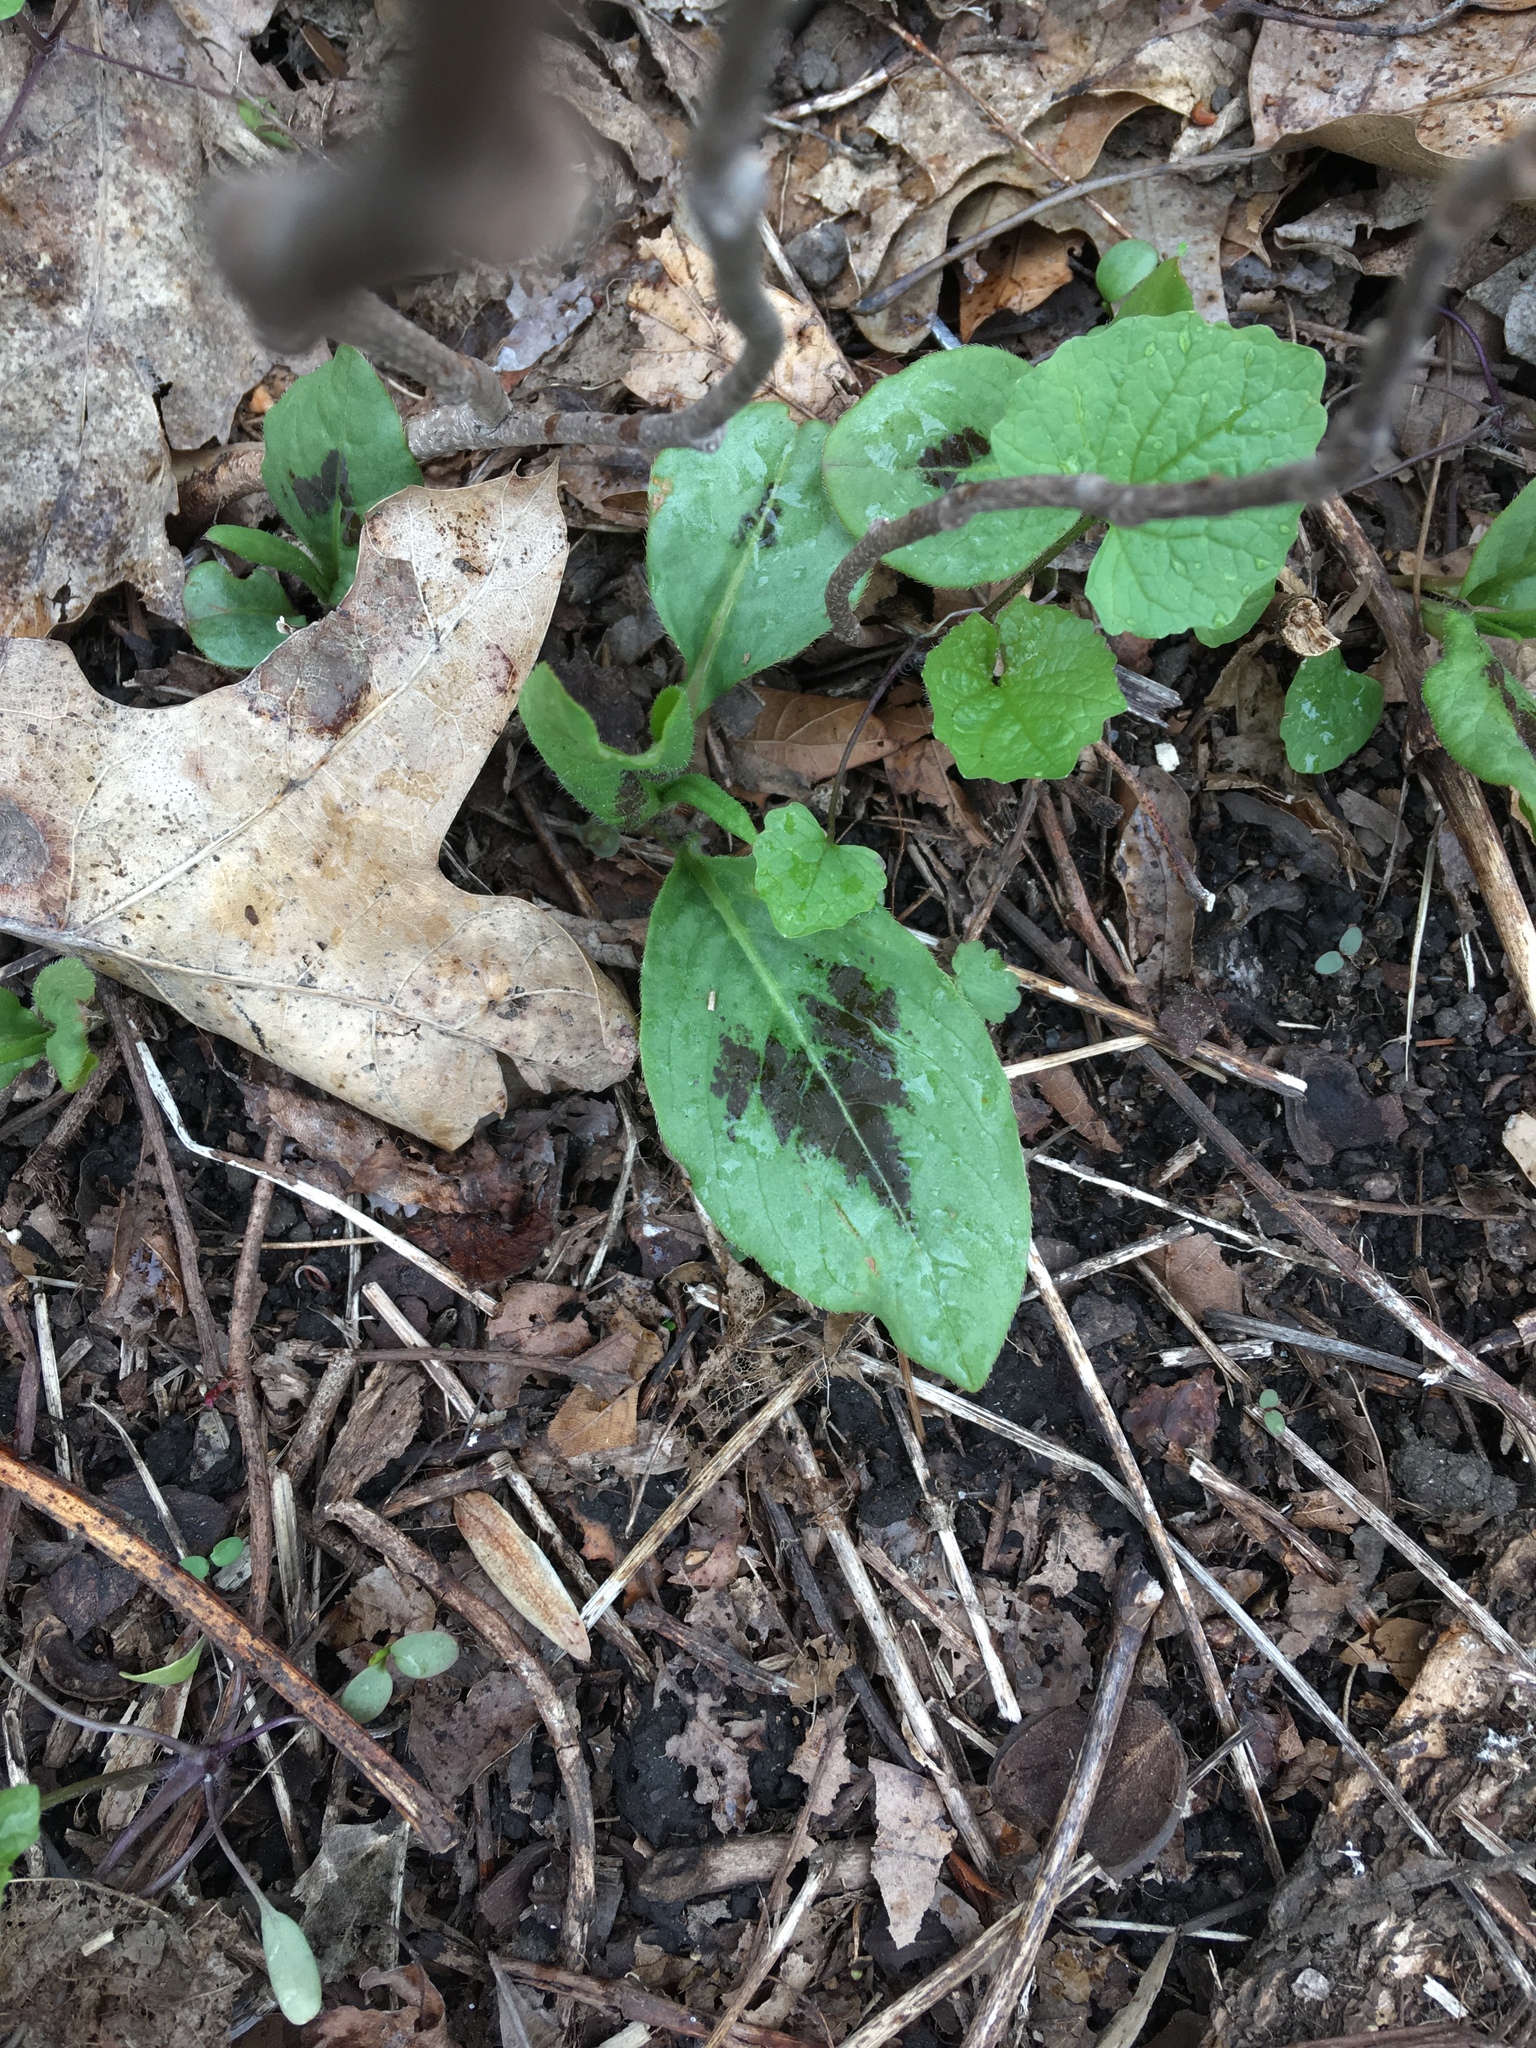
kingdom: Plantae
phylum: Tracheophyta
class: Magnoliopsida
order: Caryophyllales
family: Polygonaceae
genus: Persicaria
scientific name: Persicaria virginiana
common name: Jumpseed
